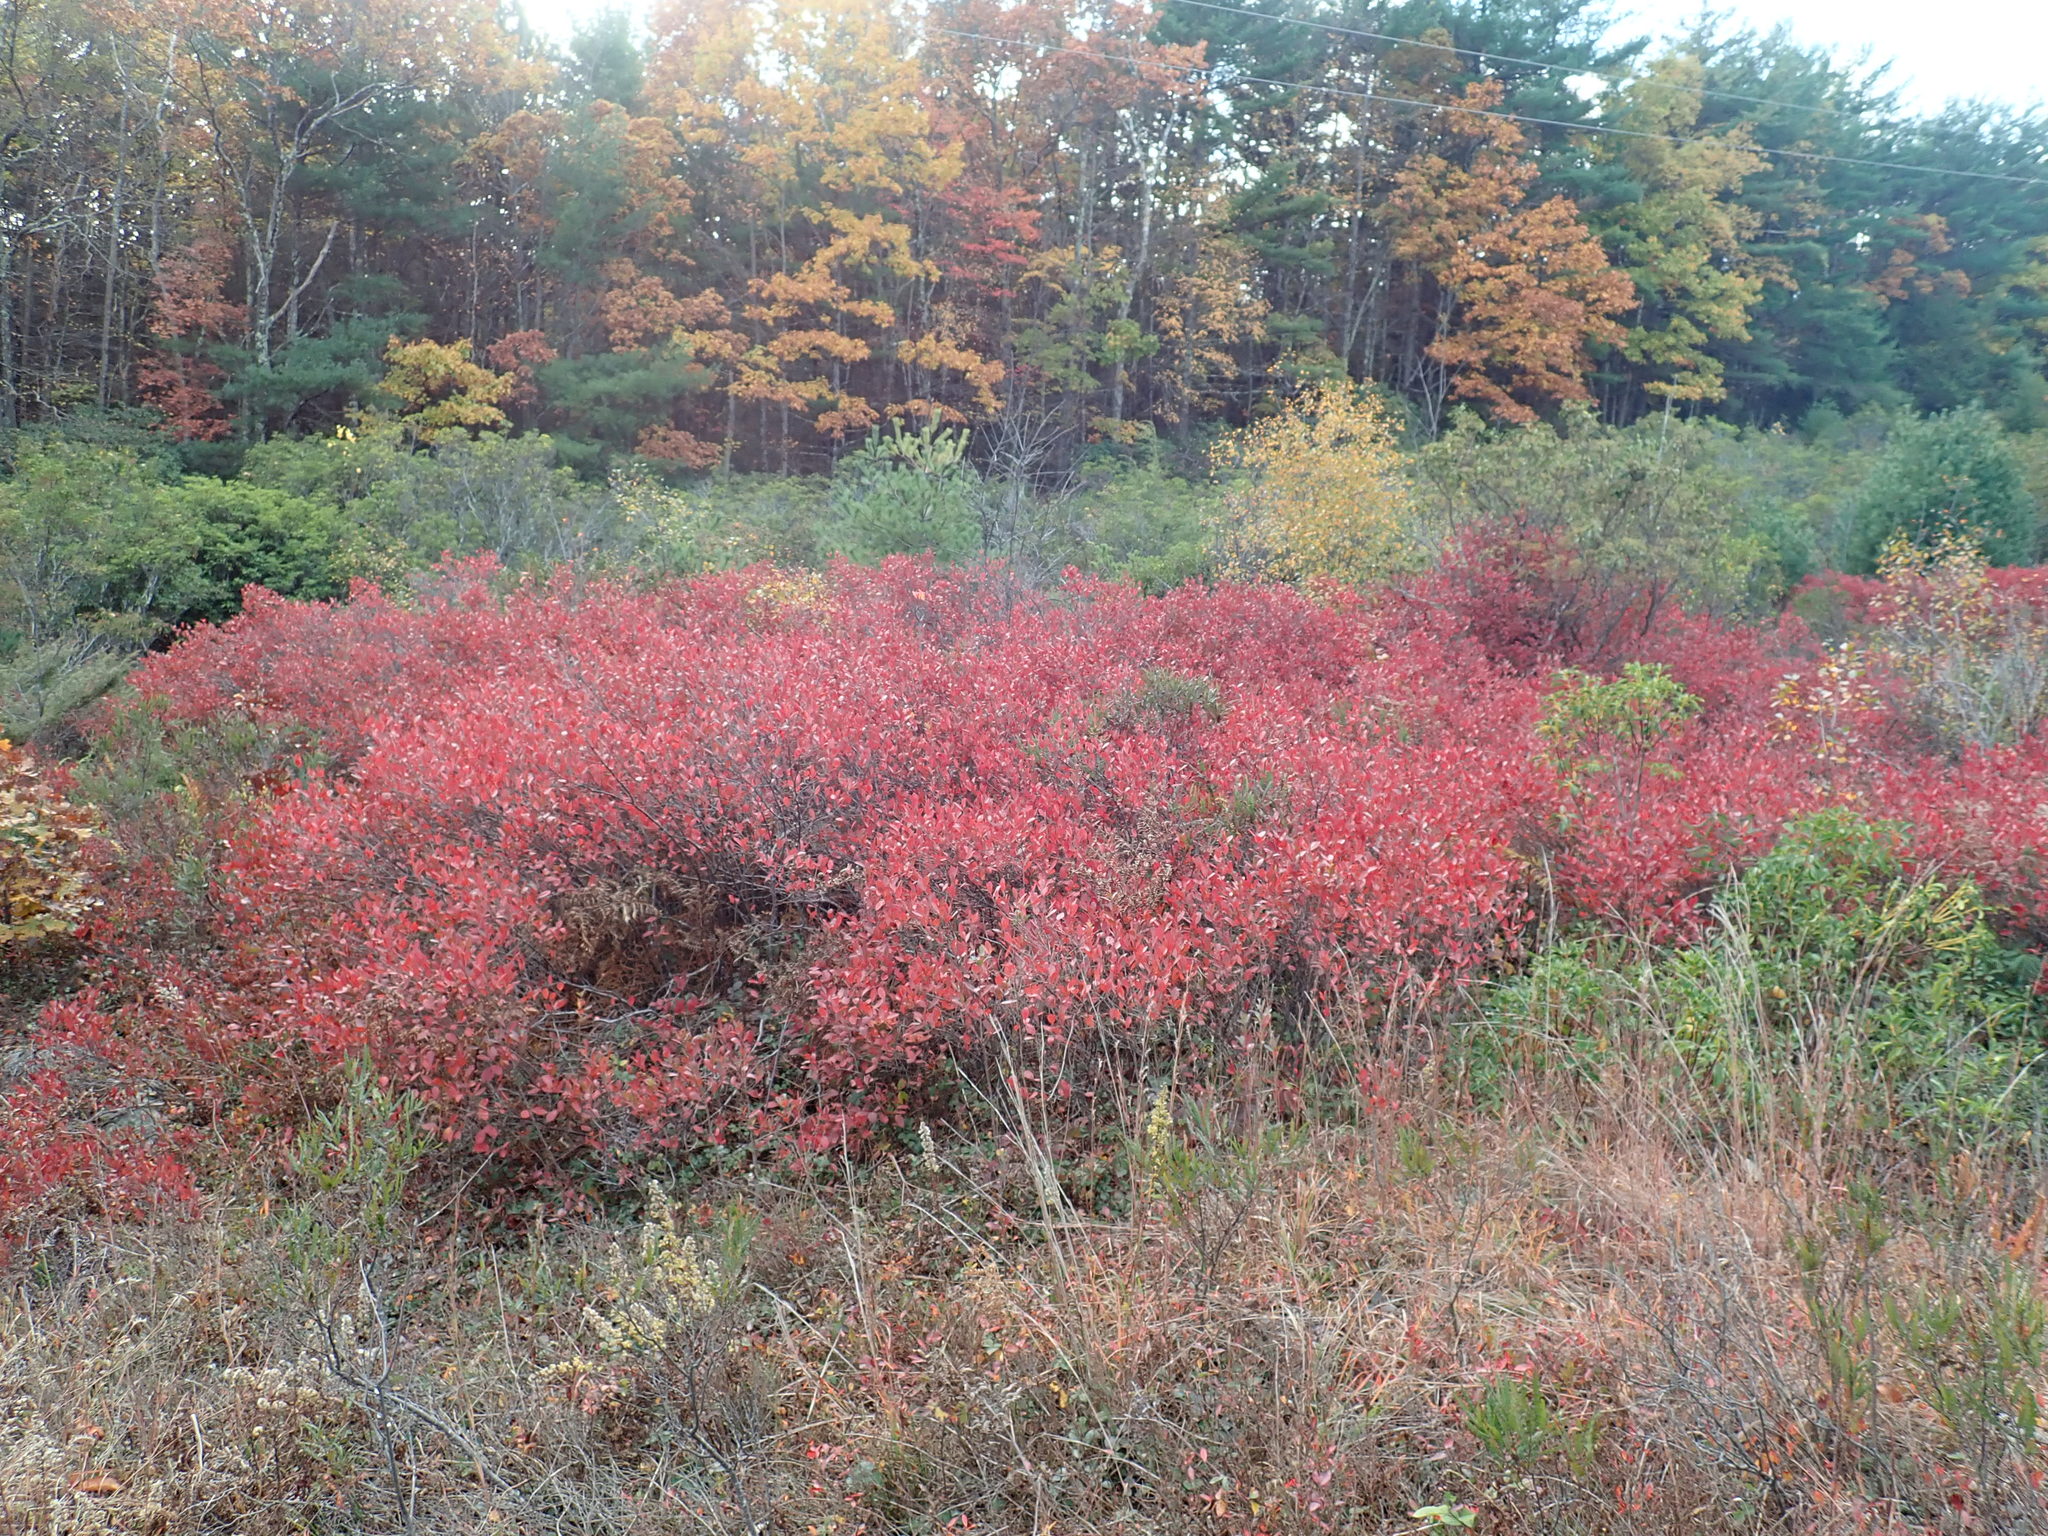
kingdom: Plantae
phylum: Tracheophyta
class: Magnoliopsida
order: Ericales
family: Ericaceae
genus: Gaylussacia
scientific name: Gaylussacia baccata
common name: Black huckleberry
